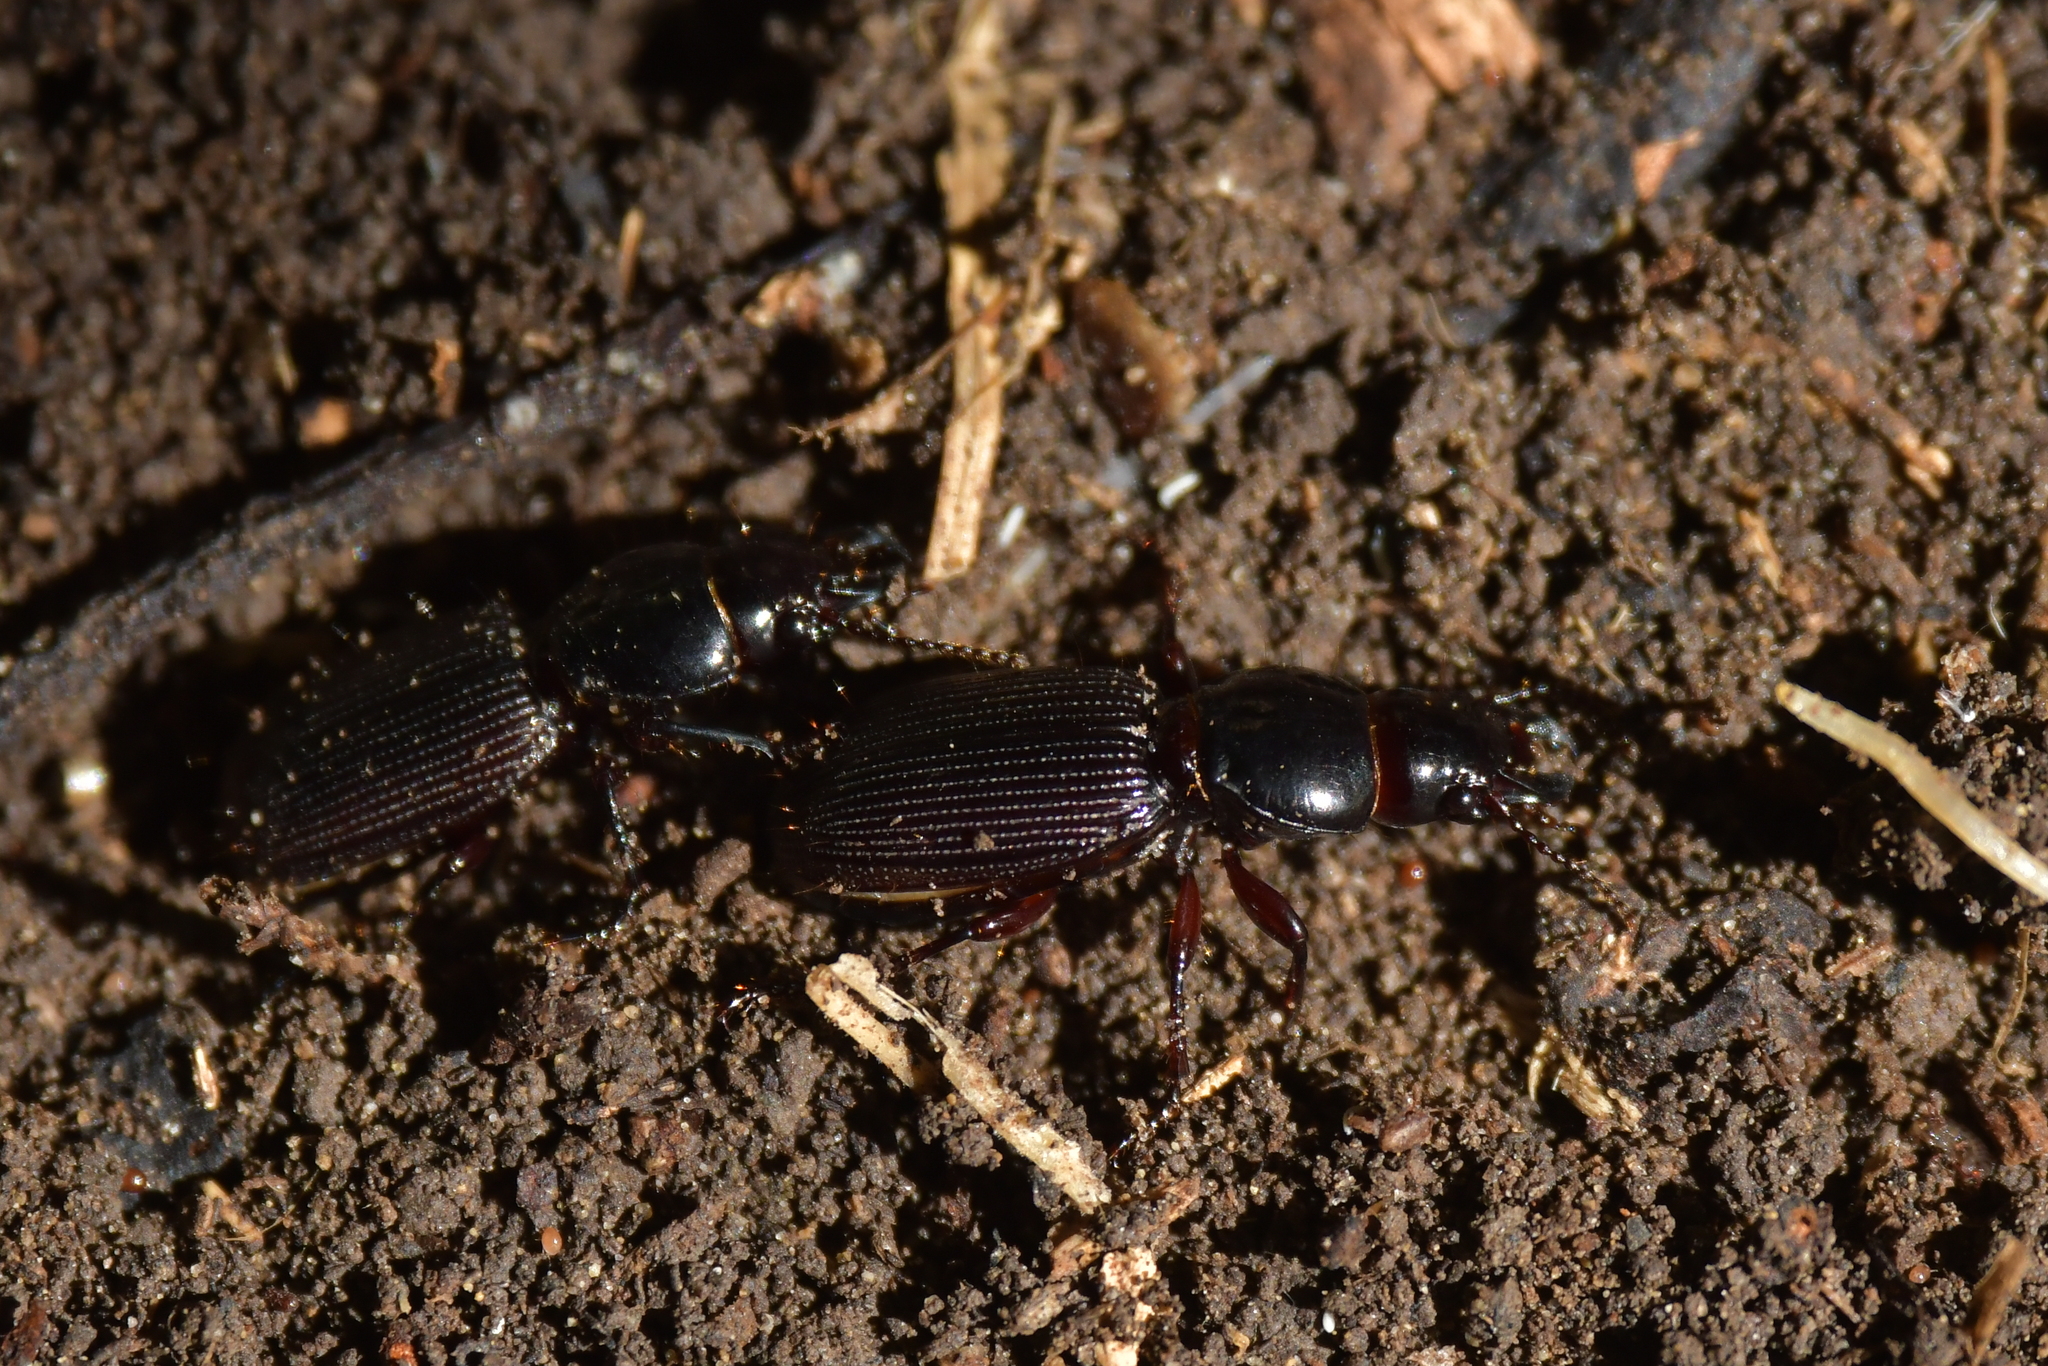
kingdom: Animalia
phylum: Arthropoda
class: Insecta
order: Coleoptera
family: Carabidae
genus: Mecodema
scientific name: Mecodema oblongum
